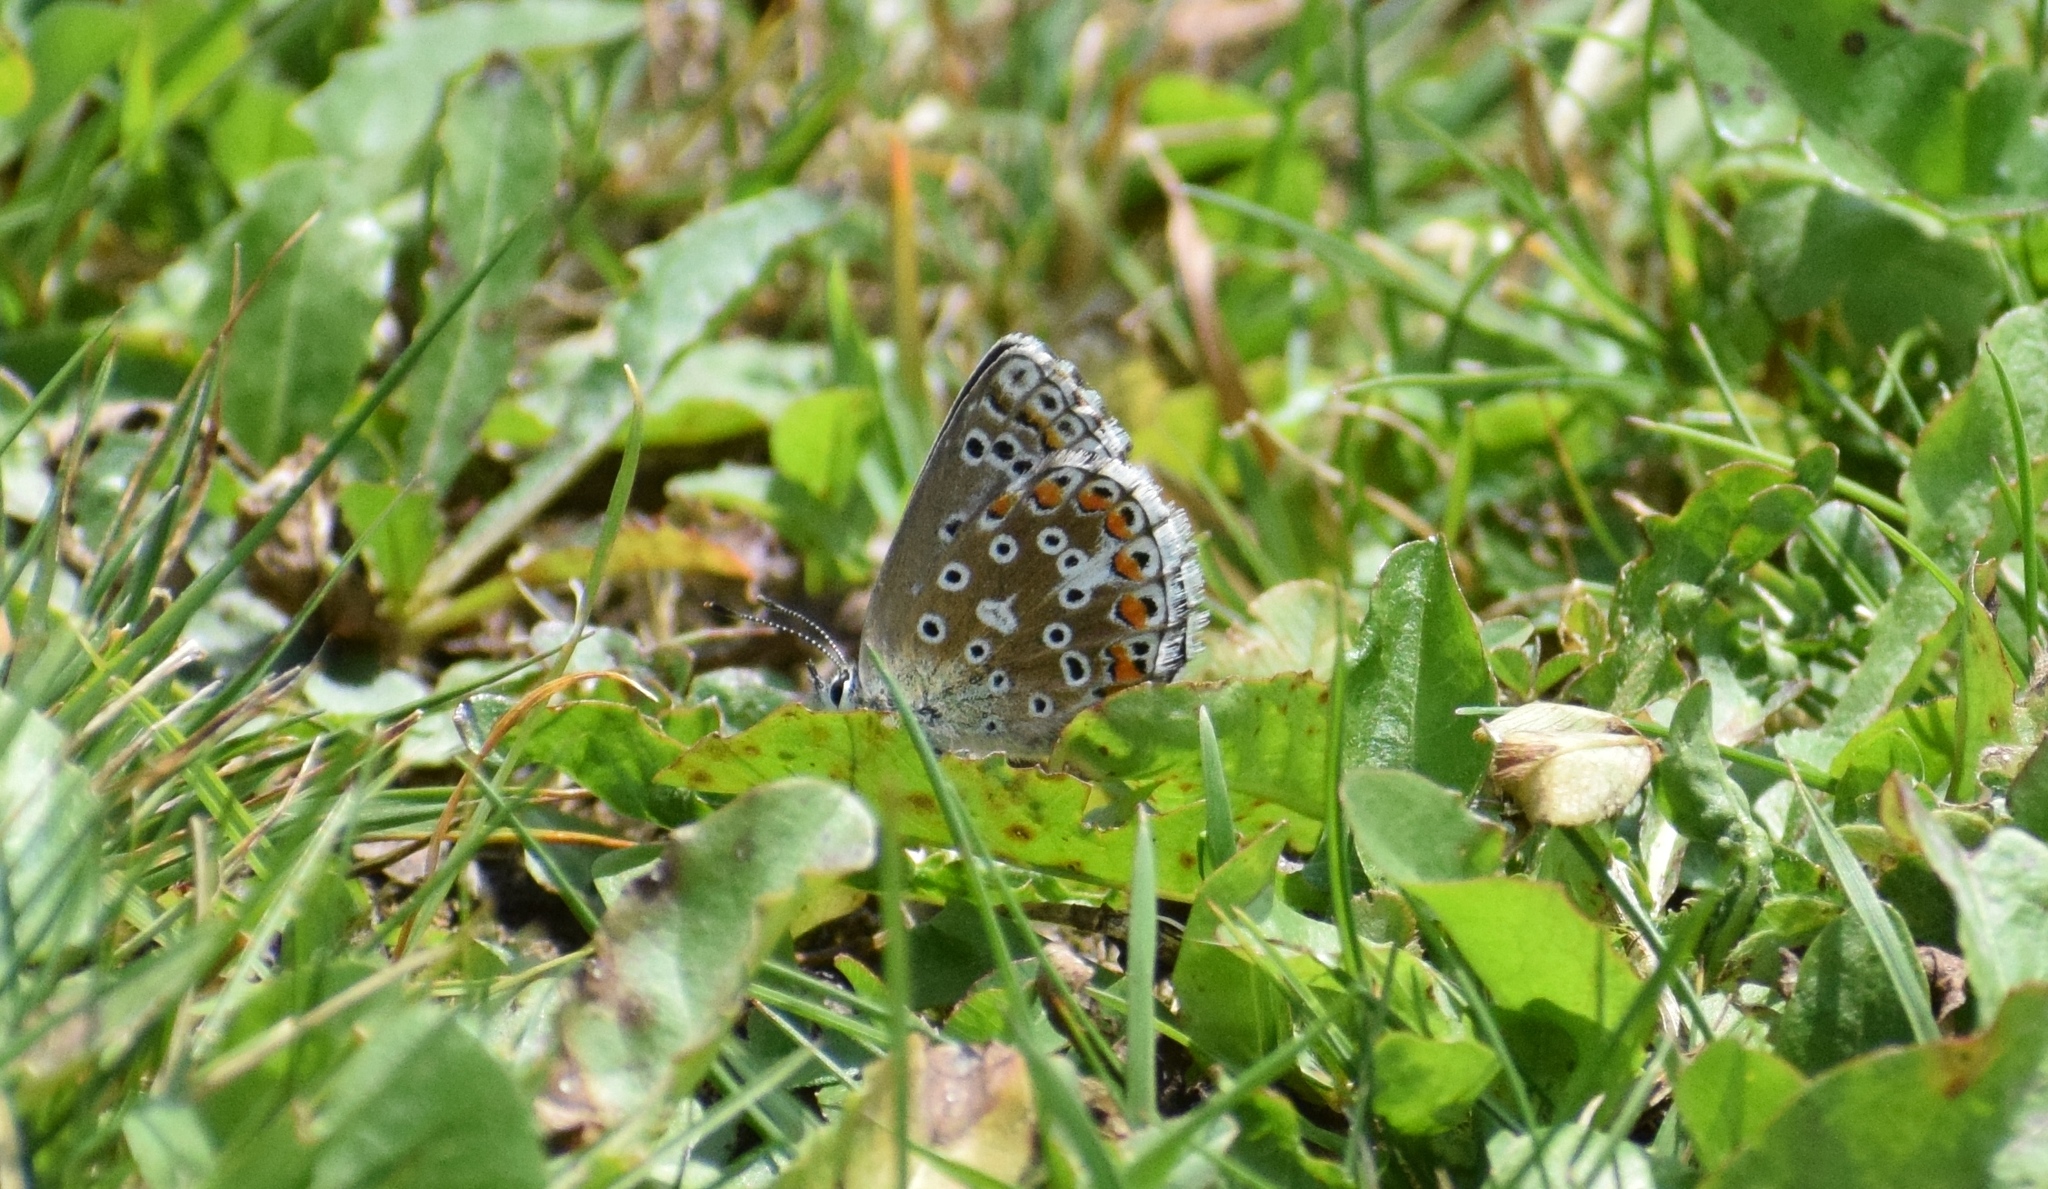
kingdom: Animalia
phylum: Arthropoda
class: Insecta
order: Lepidoptera
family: Lycaenidae
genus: Lysandra
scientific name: Lysandra bellargus
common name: Adonis blue
